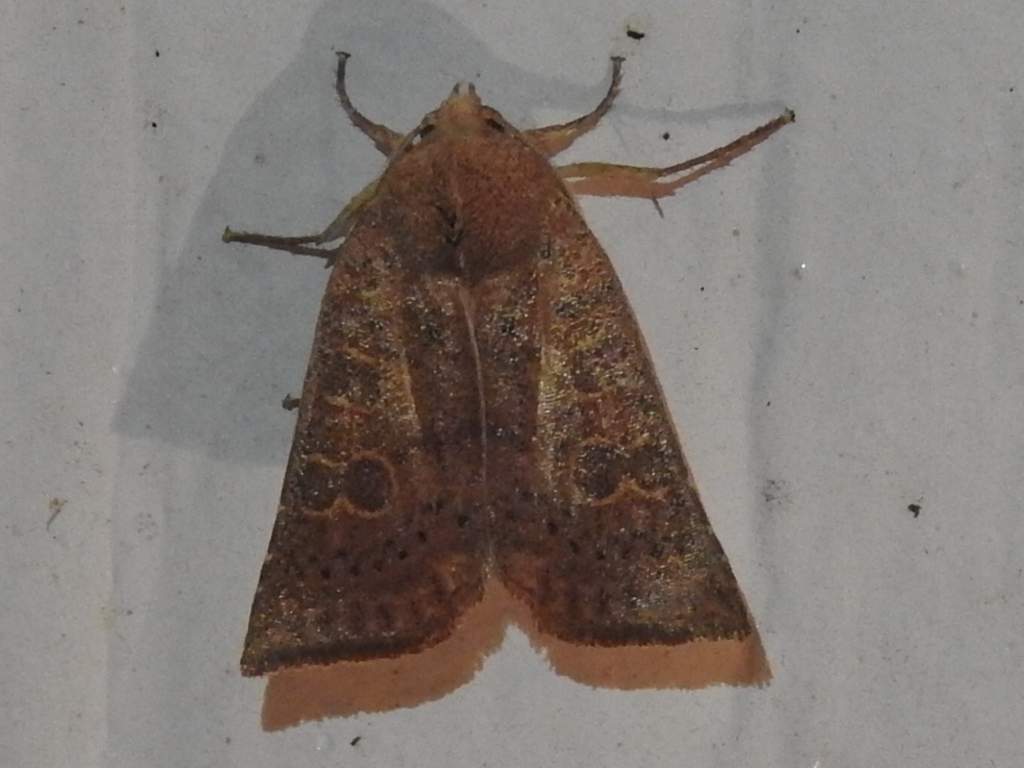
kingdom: Animalia
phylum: Arthropoda
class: Insecta
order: Lepidoptera
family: Noctuidae
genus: Xystopeplus
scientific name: Xystopeplus rufago
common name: Red-winged sallow
